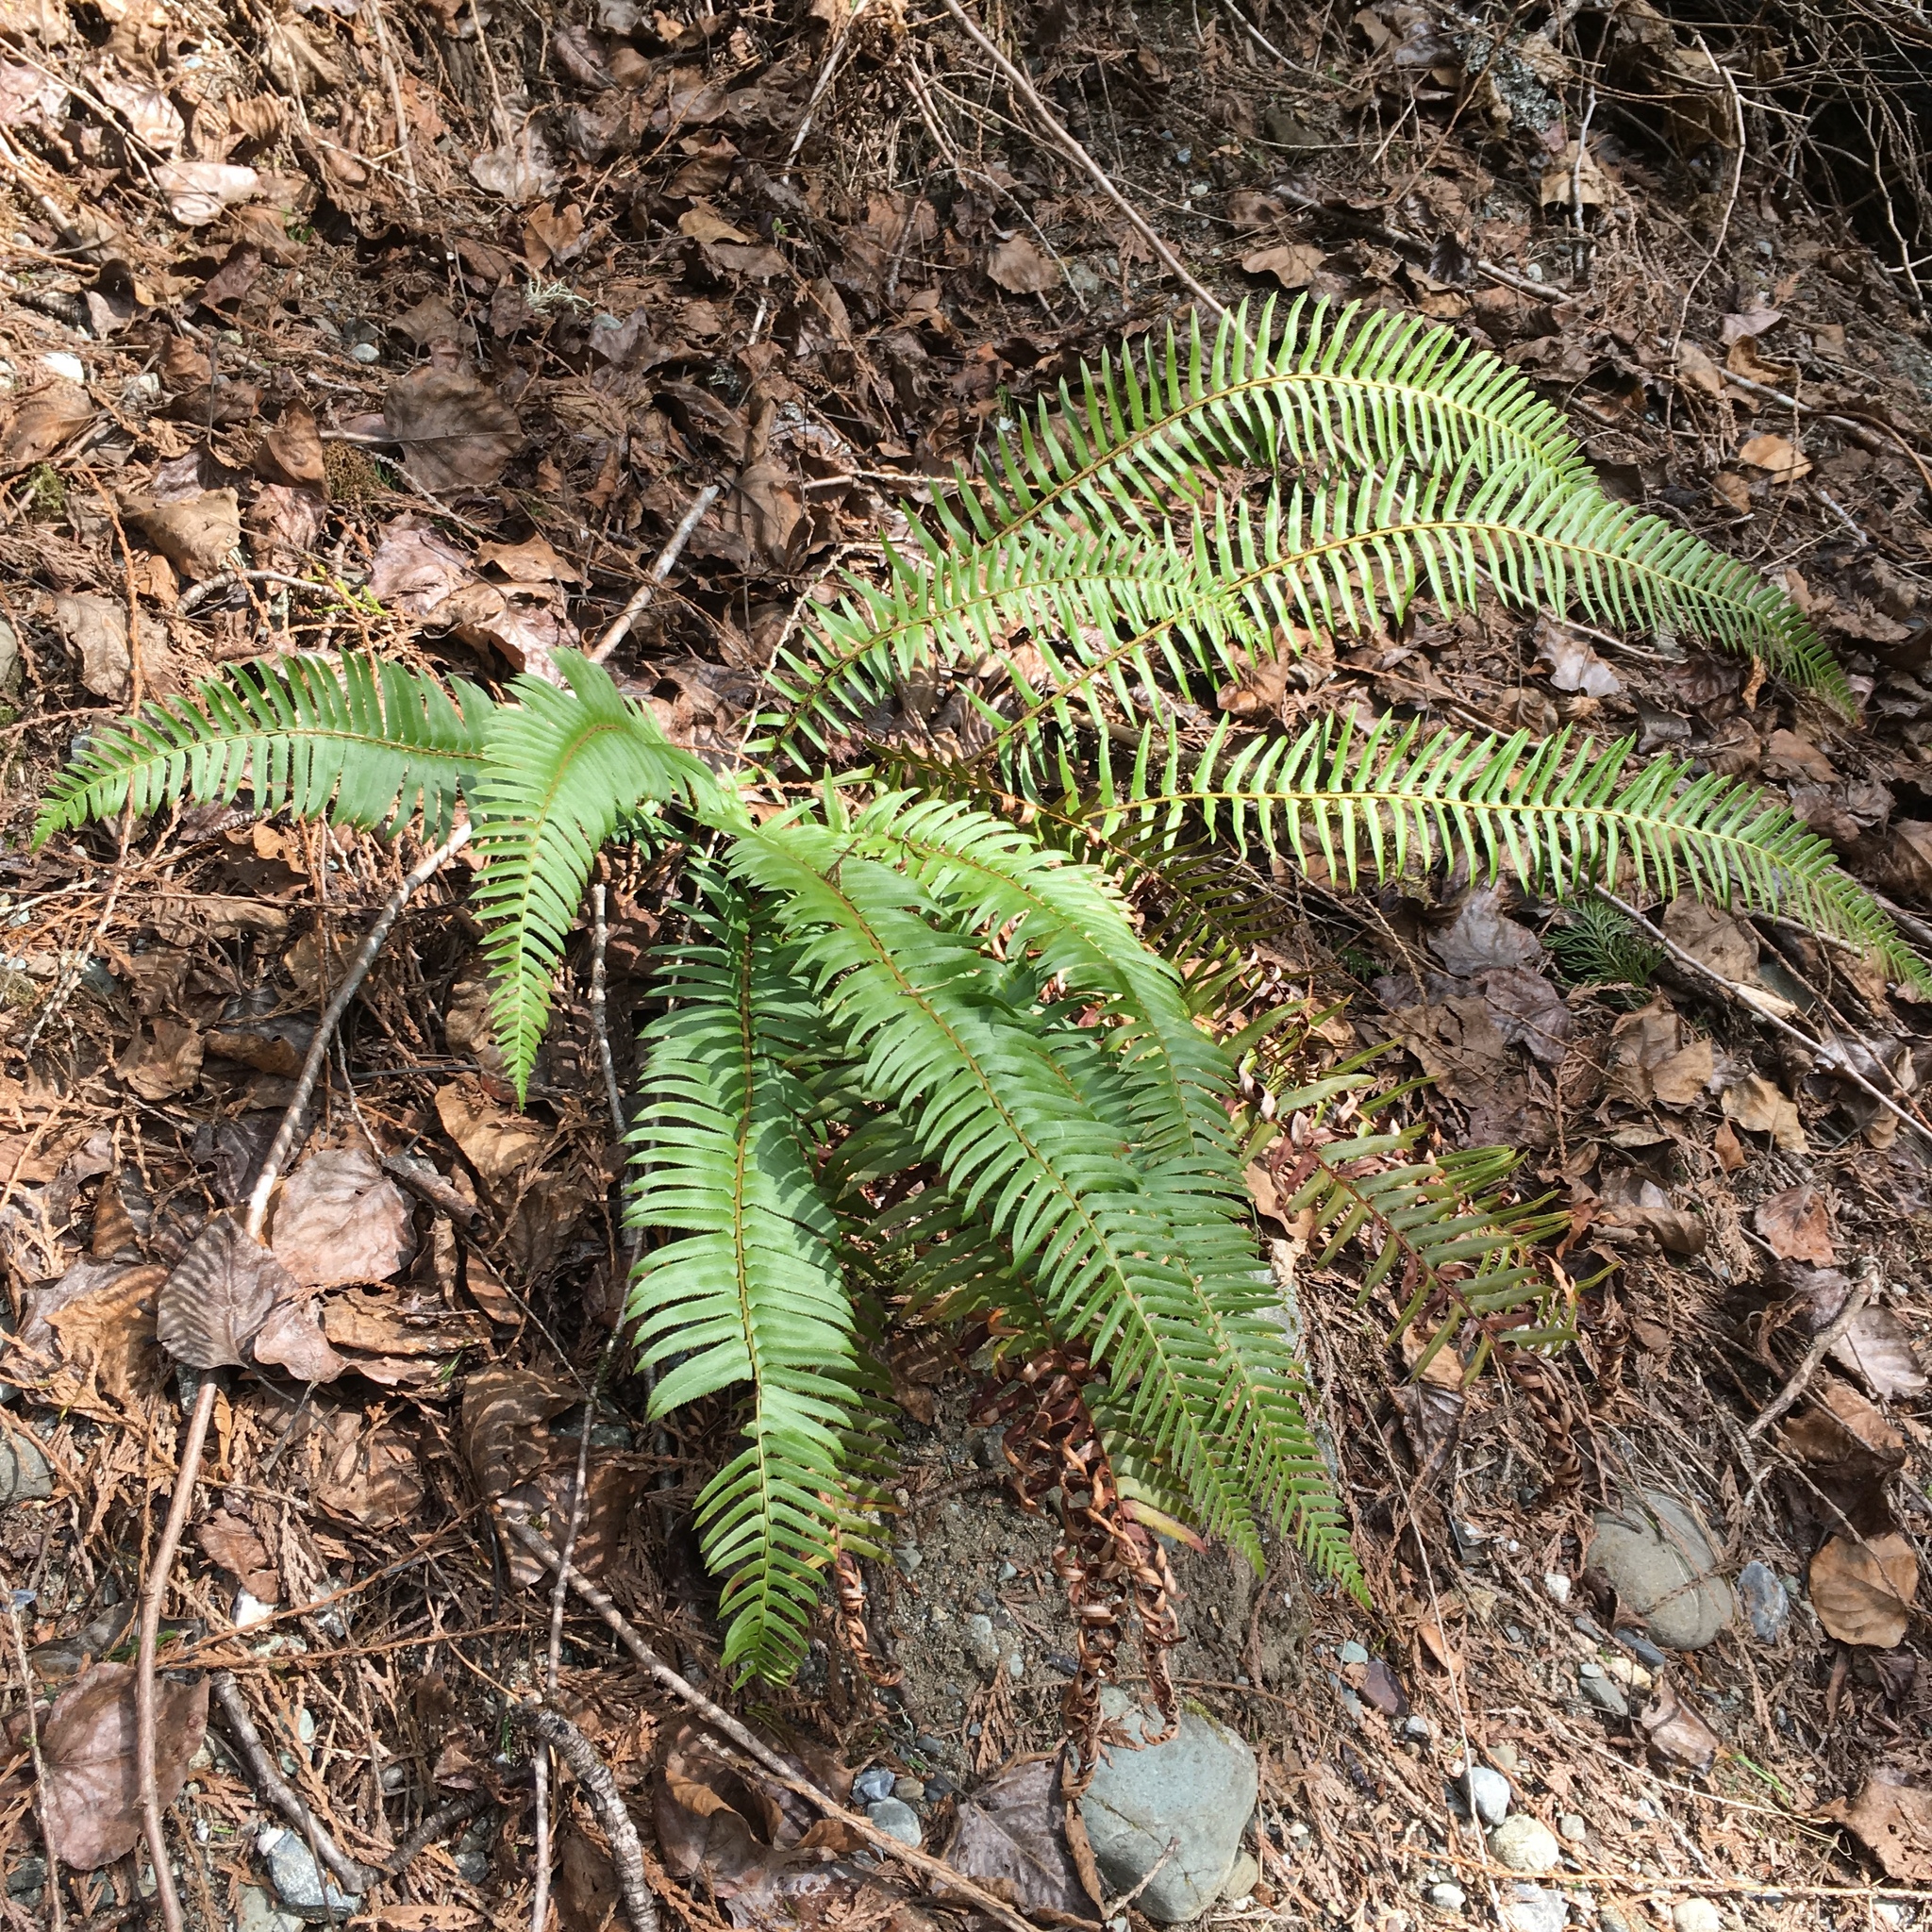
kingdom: Plantae
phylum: Tracheophyta
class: Polypodiopsida
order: Polypodiales
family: Dryopteridaceae
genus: Polystichum
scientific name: Polystichum munitum
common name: Western sword-fern
